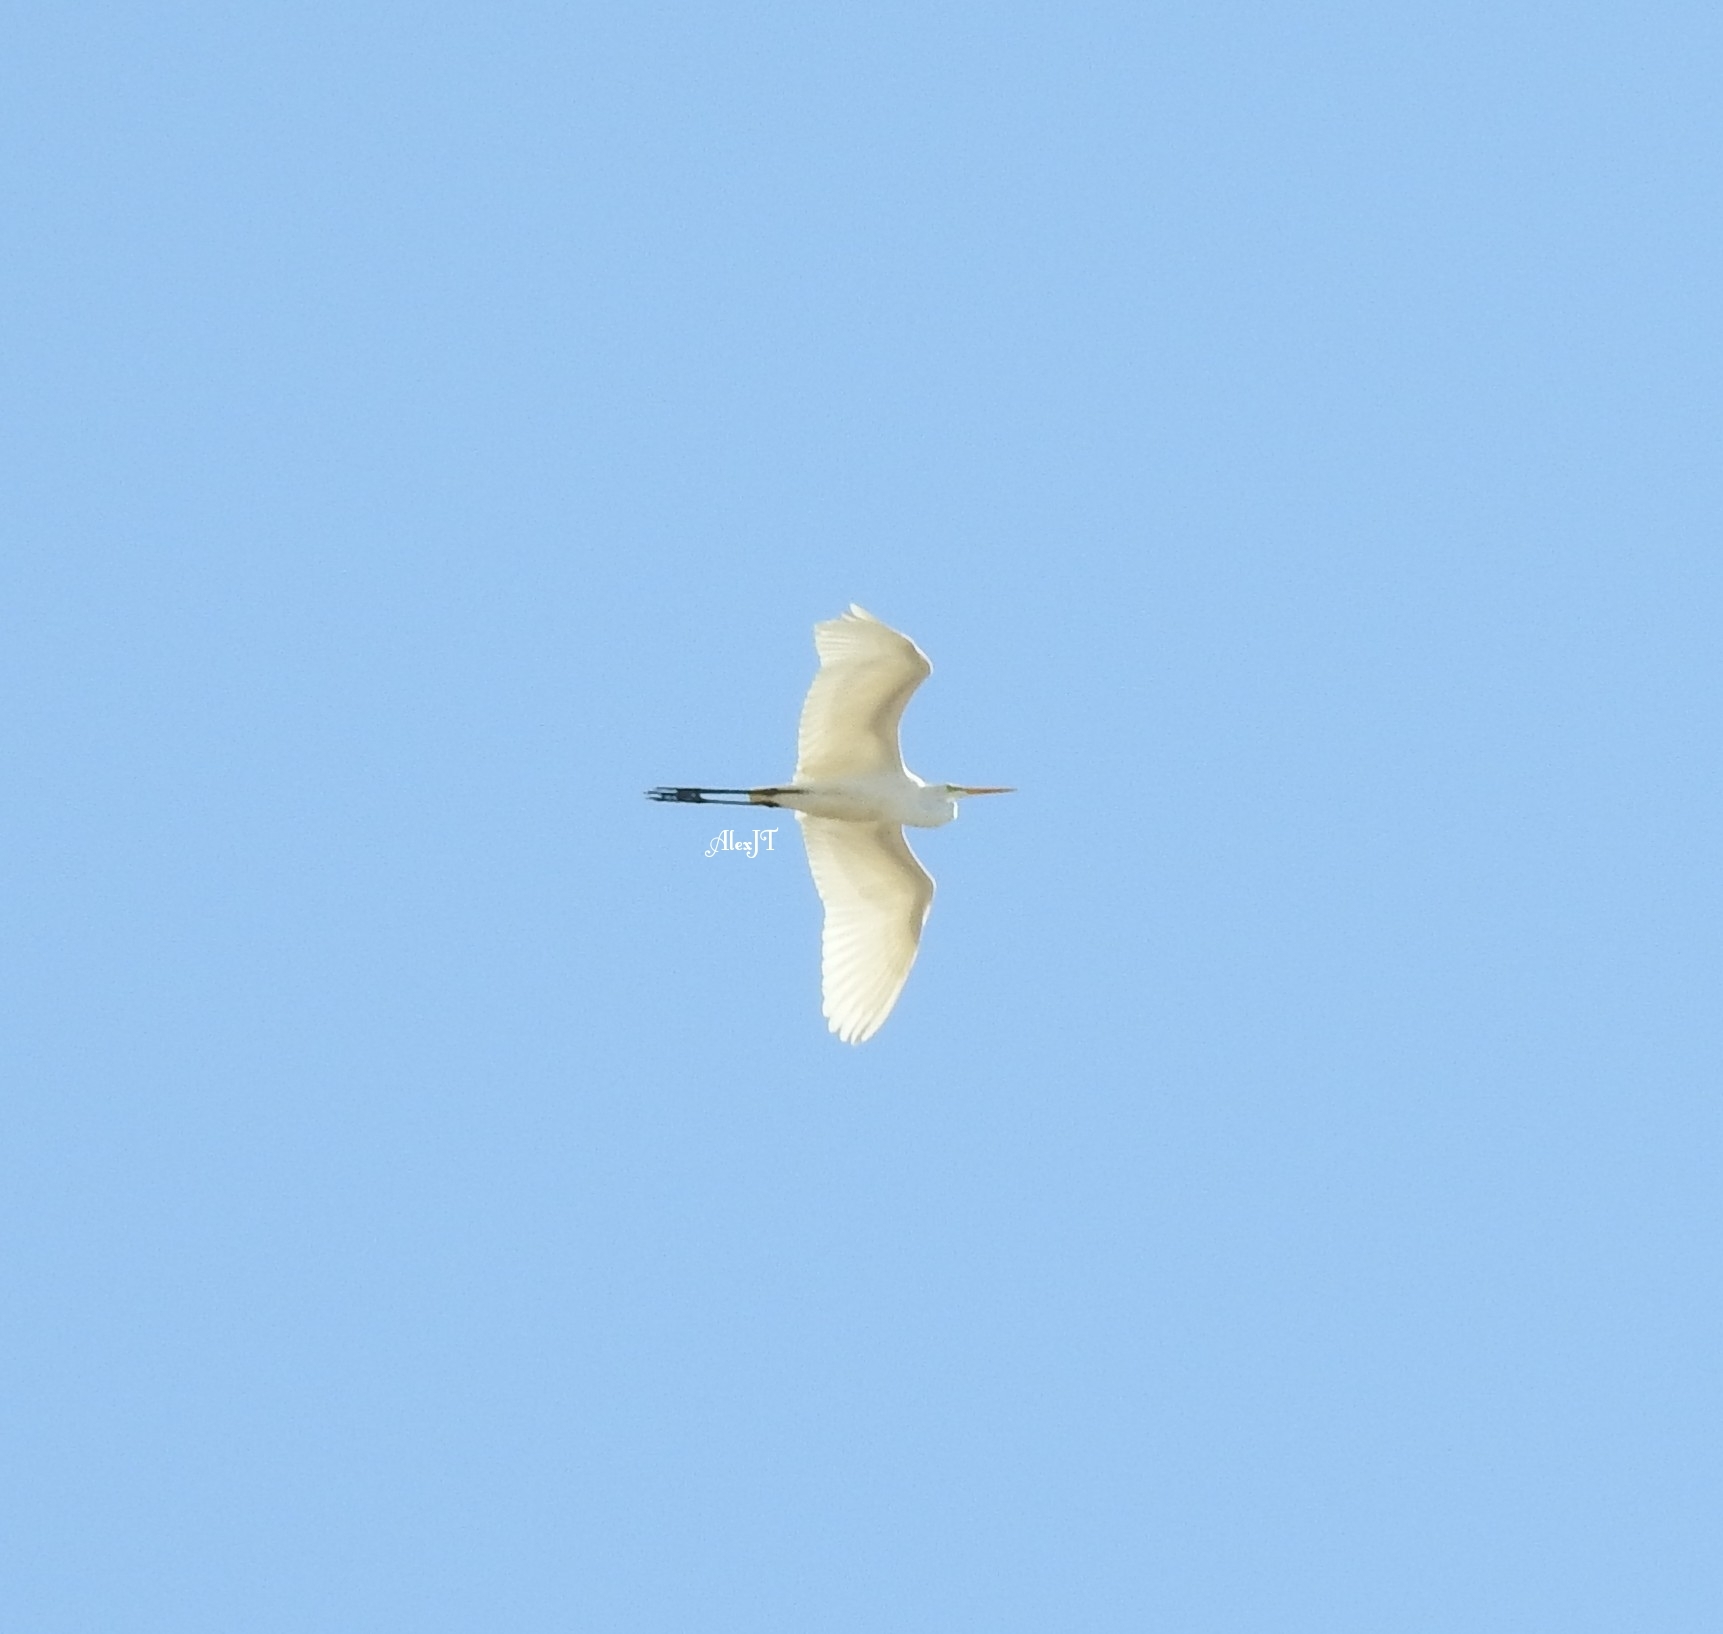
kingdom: Animalia
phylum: Chordata
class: Aves
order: Pelecaniformes
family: Ardeidae
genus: Ardea
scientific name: Ardea alba
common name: Great egret
